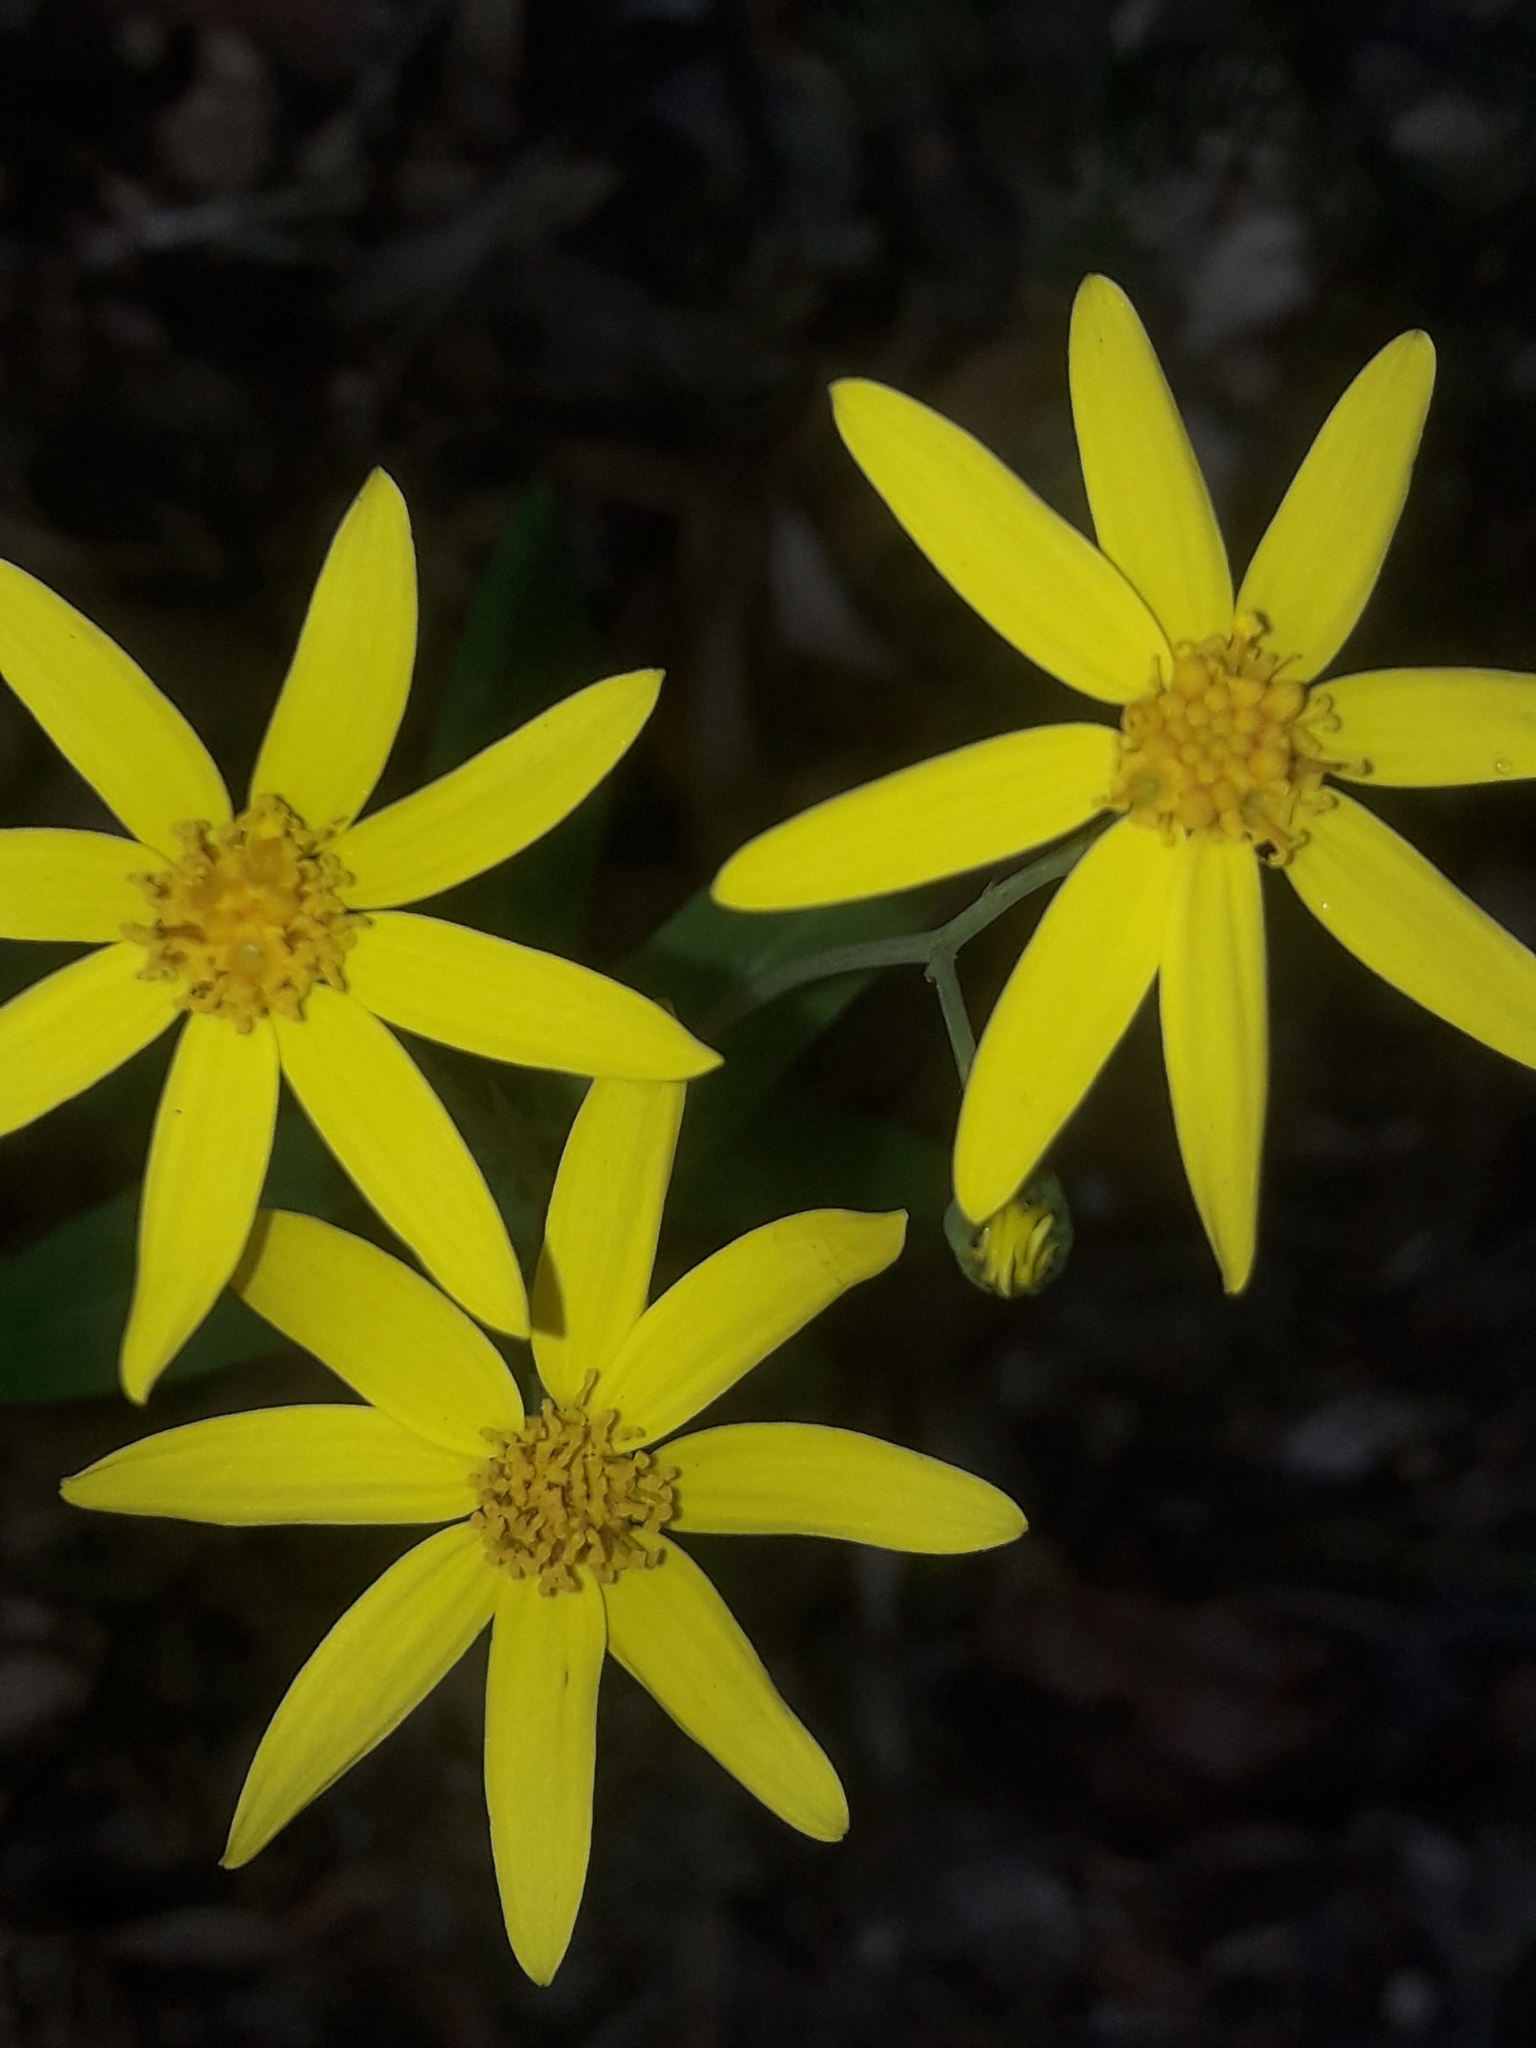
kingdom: Plantae
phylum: Tracheophyta
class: Magnoliopsida
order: Asterales
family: Asteraceae
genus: Lordhowea
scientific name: Lordhowea velleioides
